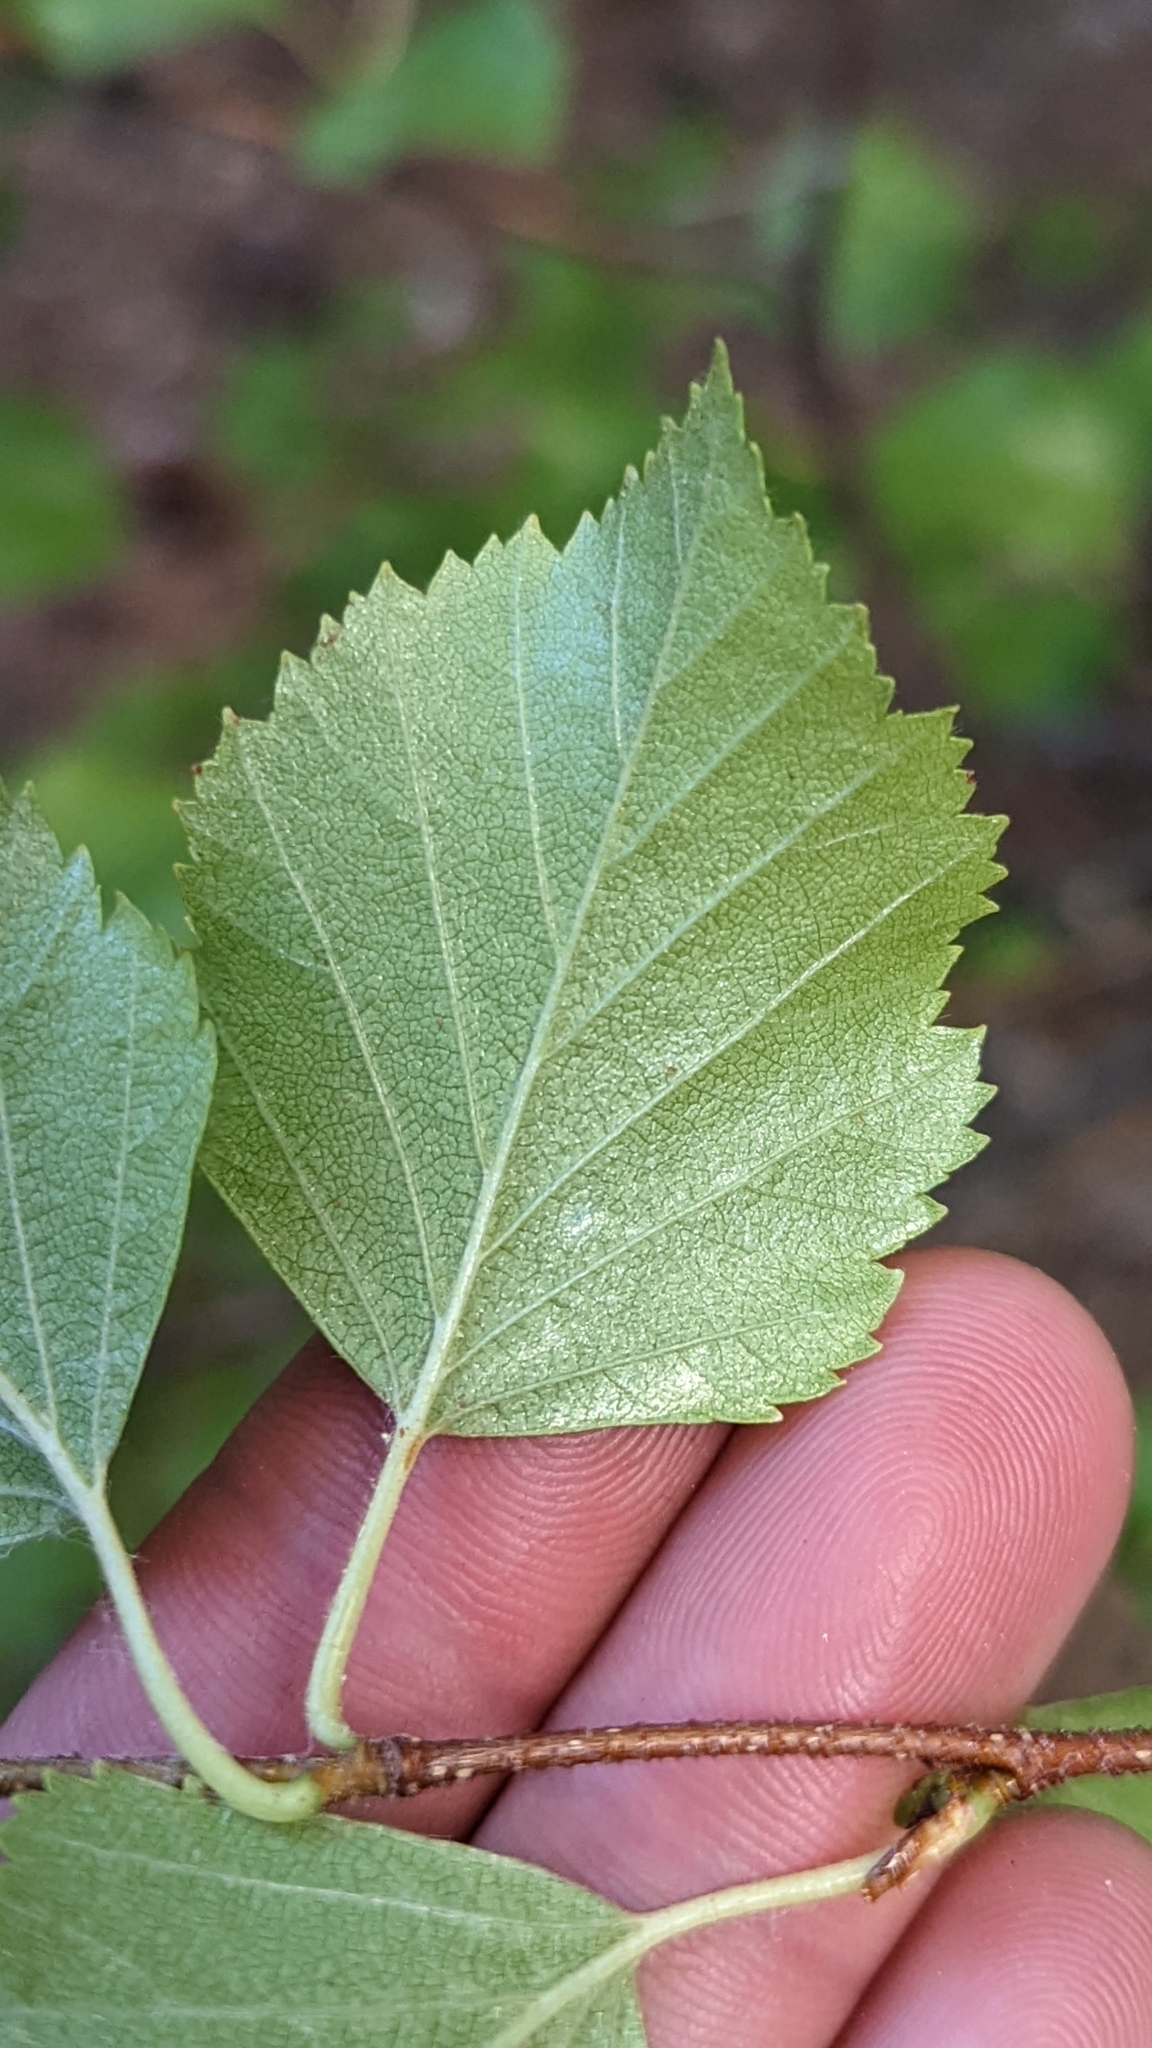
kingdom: Plantae
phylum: Tracheophyta
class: Magnoliopsida
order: Fagales
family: Betulaceae
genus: Betula
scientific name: Betula occidentalis
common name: River birch
